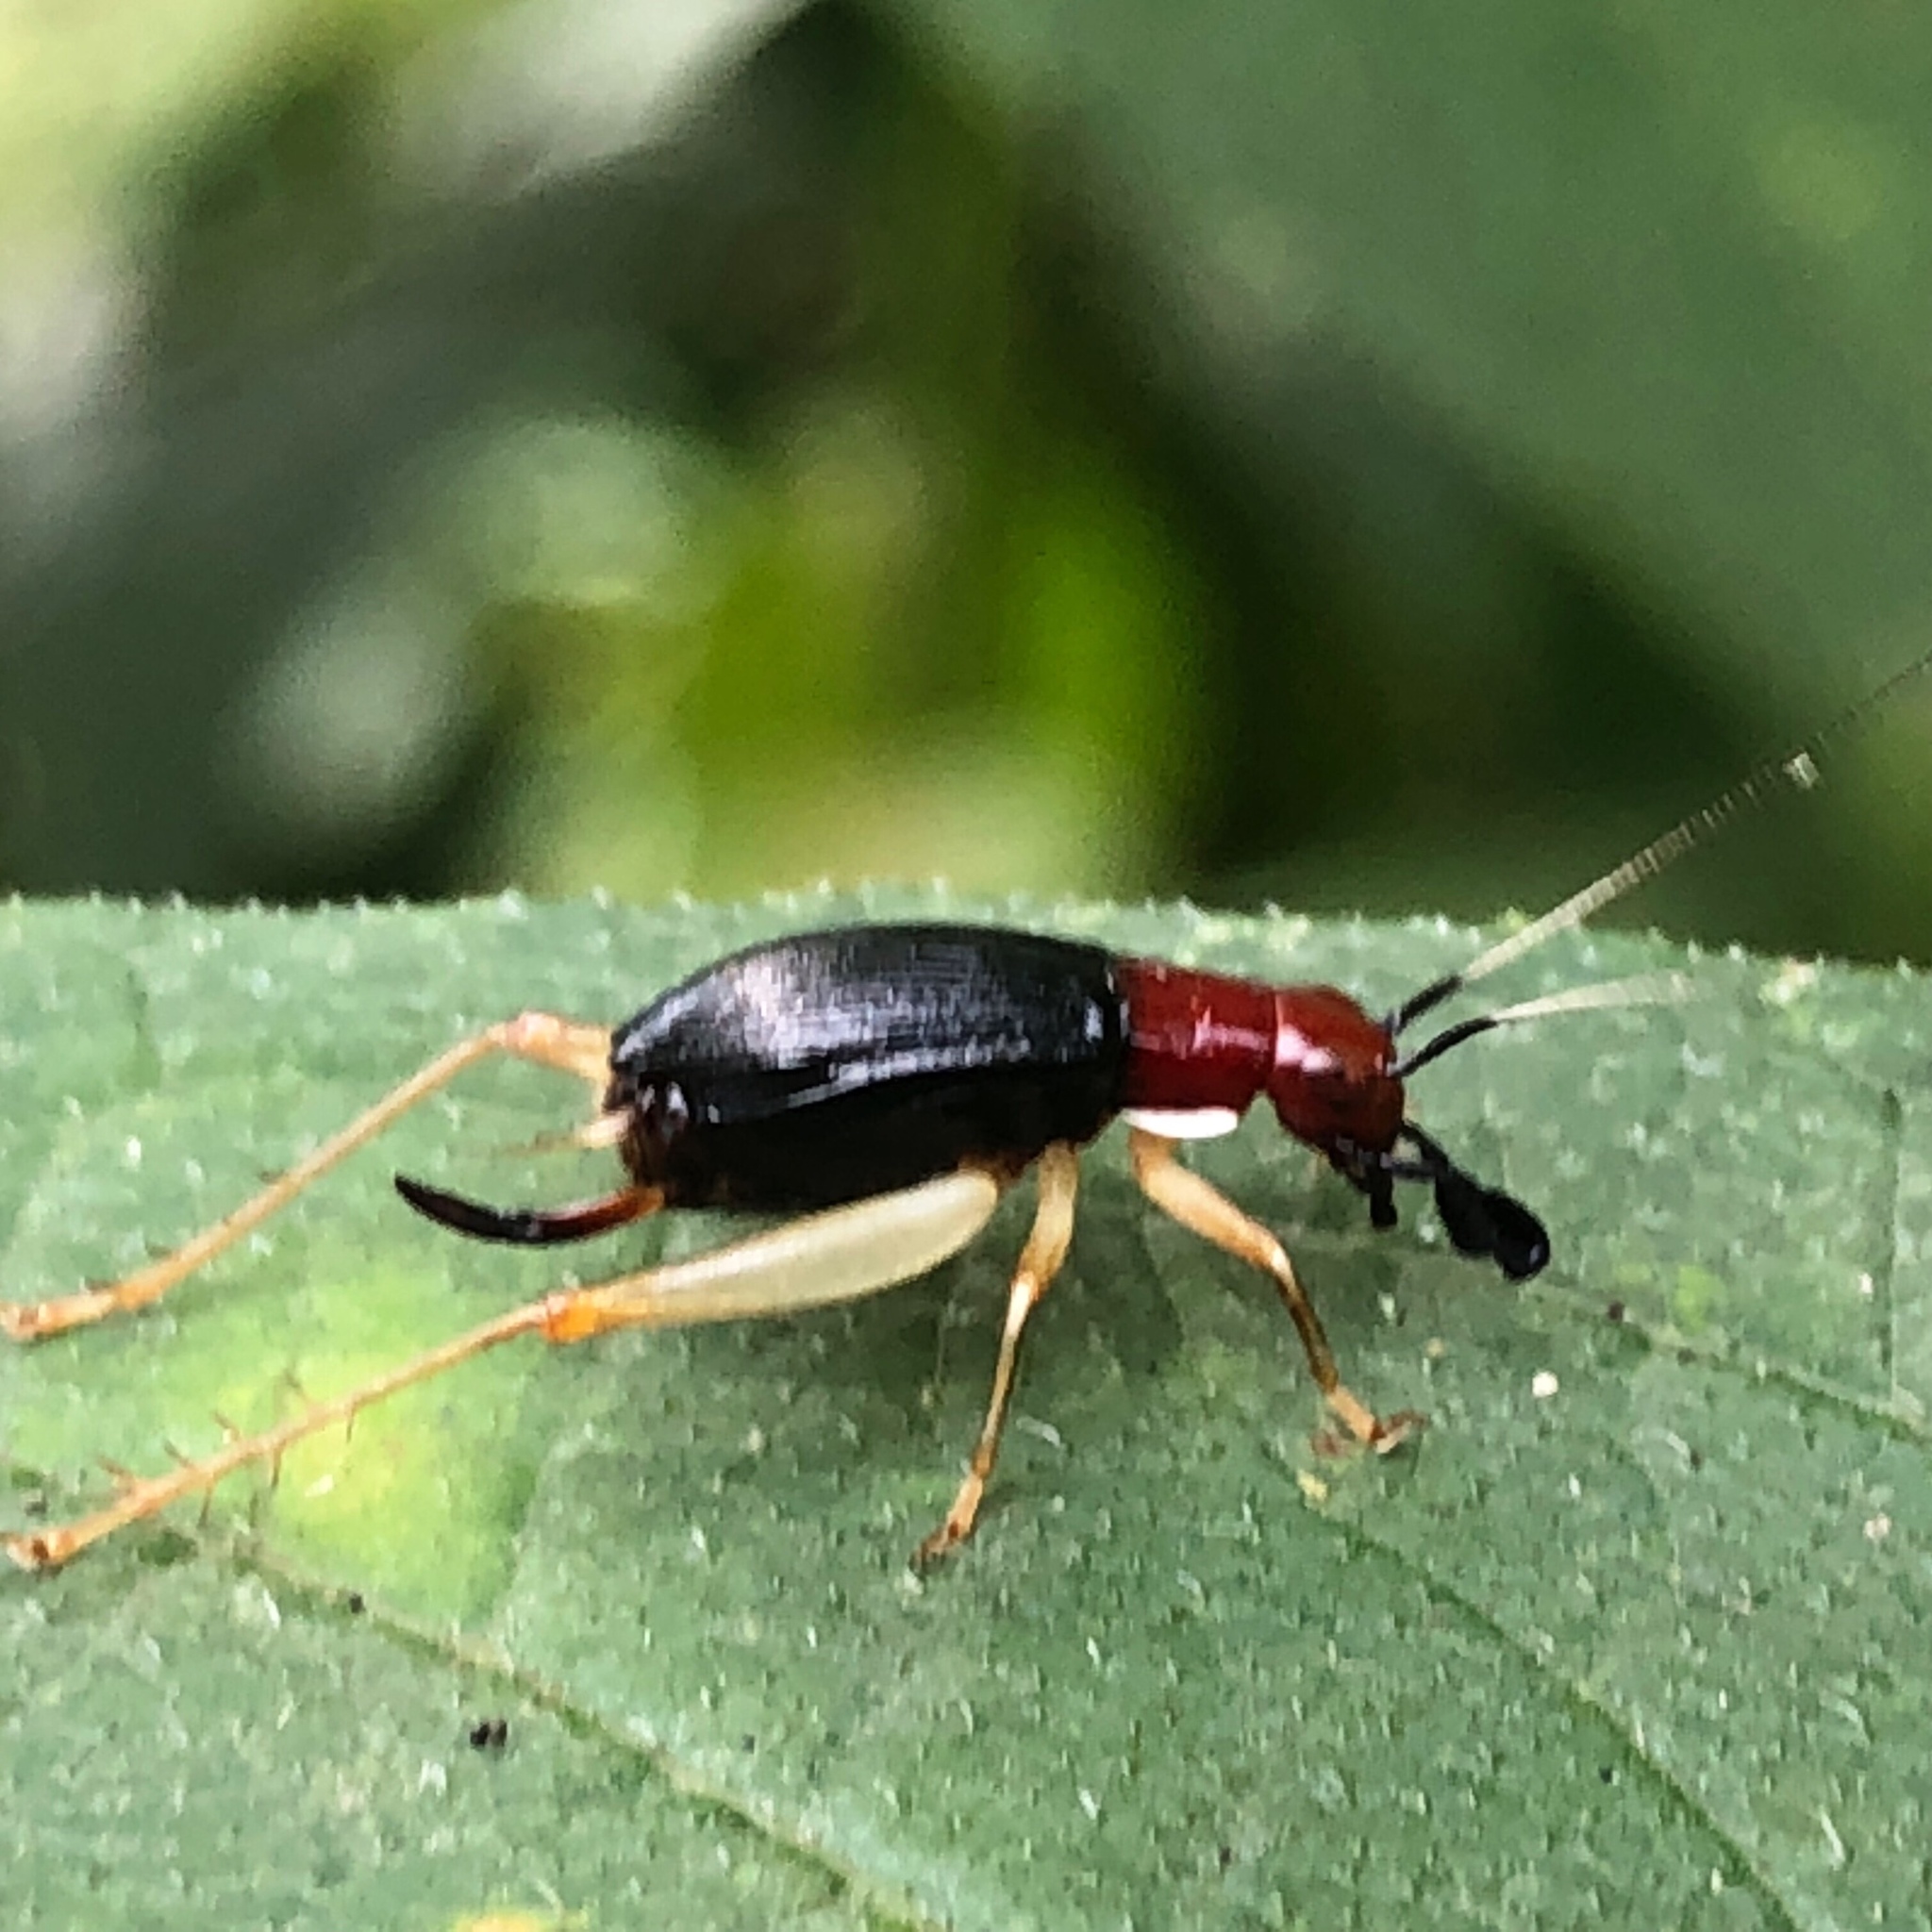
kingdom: Animalia
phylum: Arthropoda
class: Insecta
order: Orthoptera
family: Trigonidiidae
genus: Phyllopalpus
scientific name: Phyllopalpus pulchellus
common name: Handsome trig
